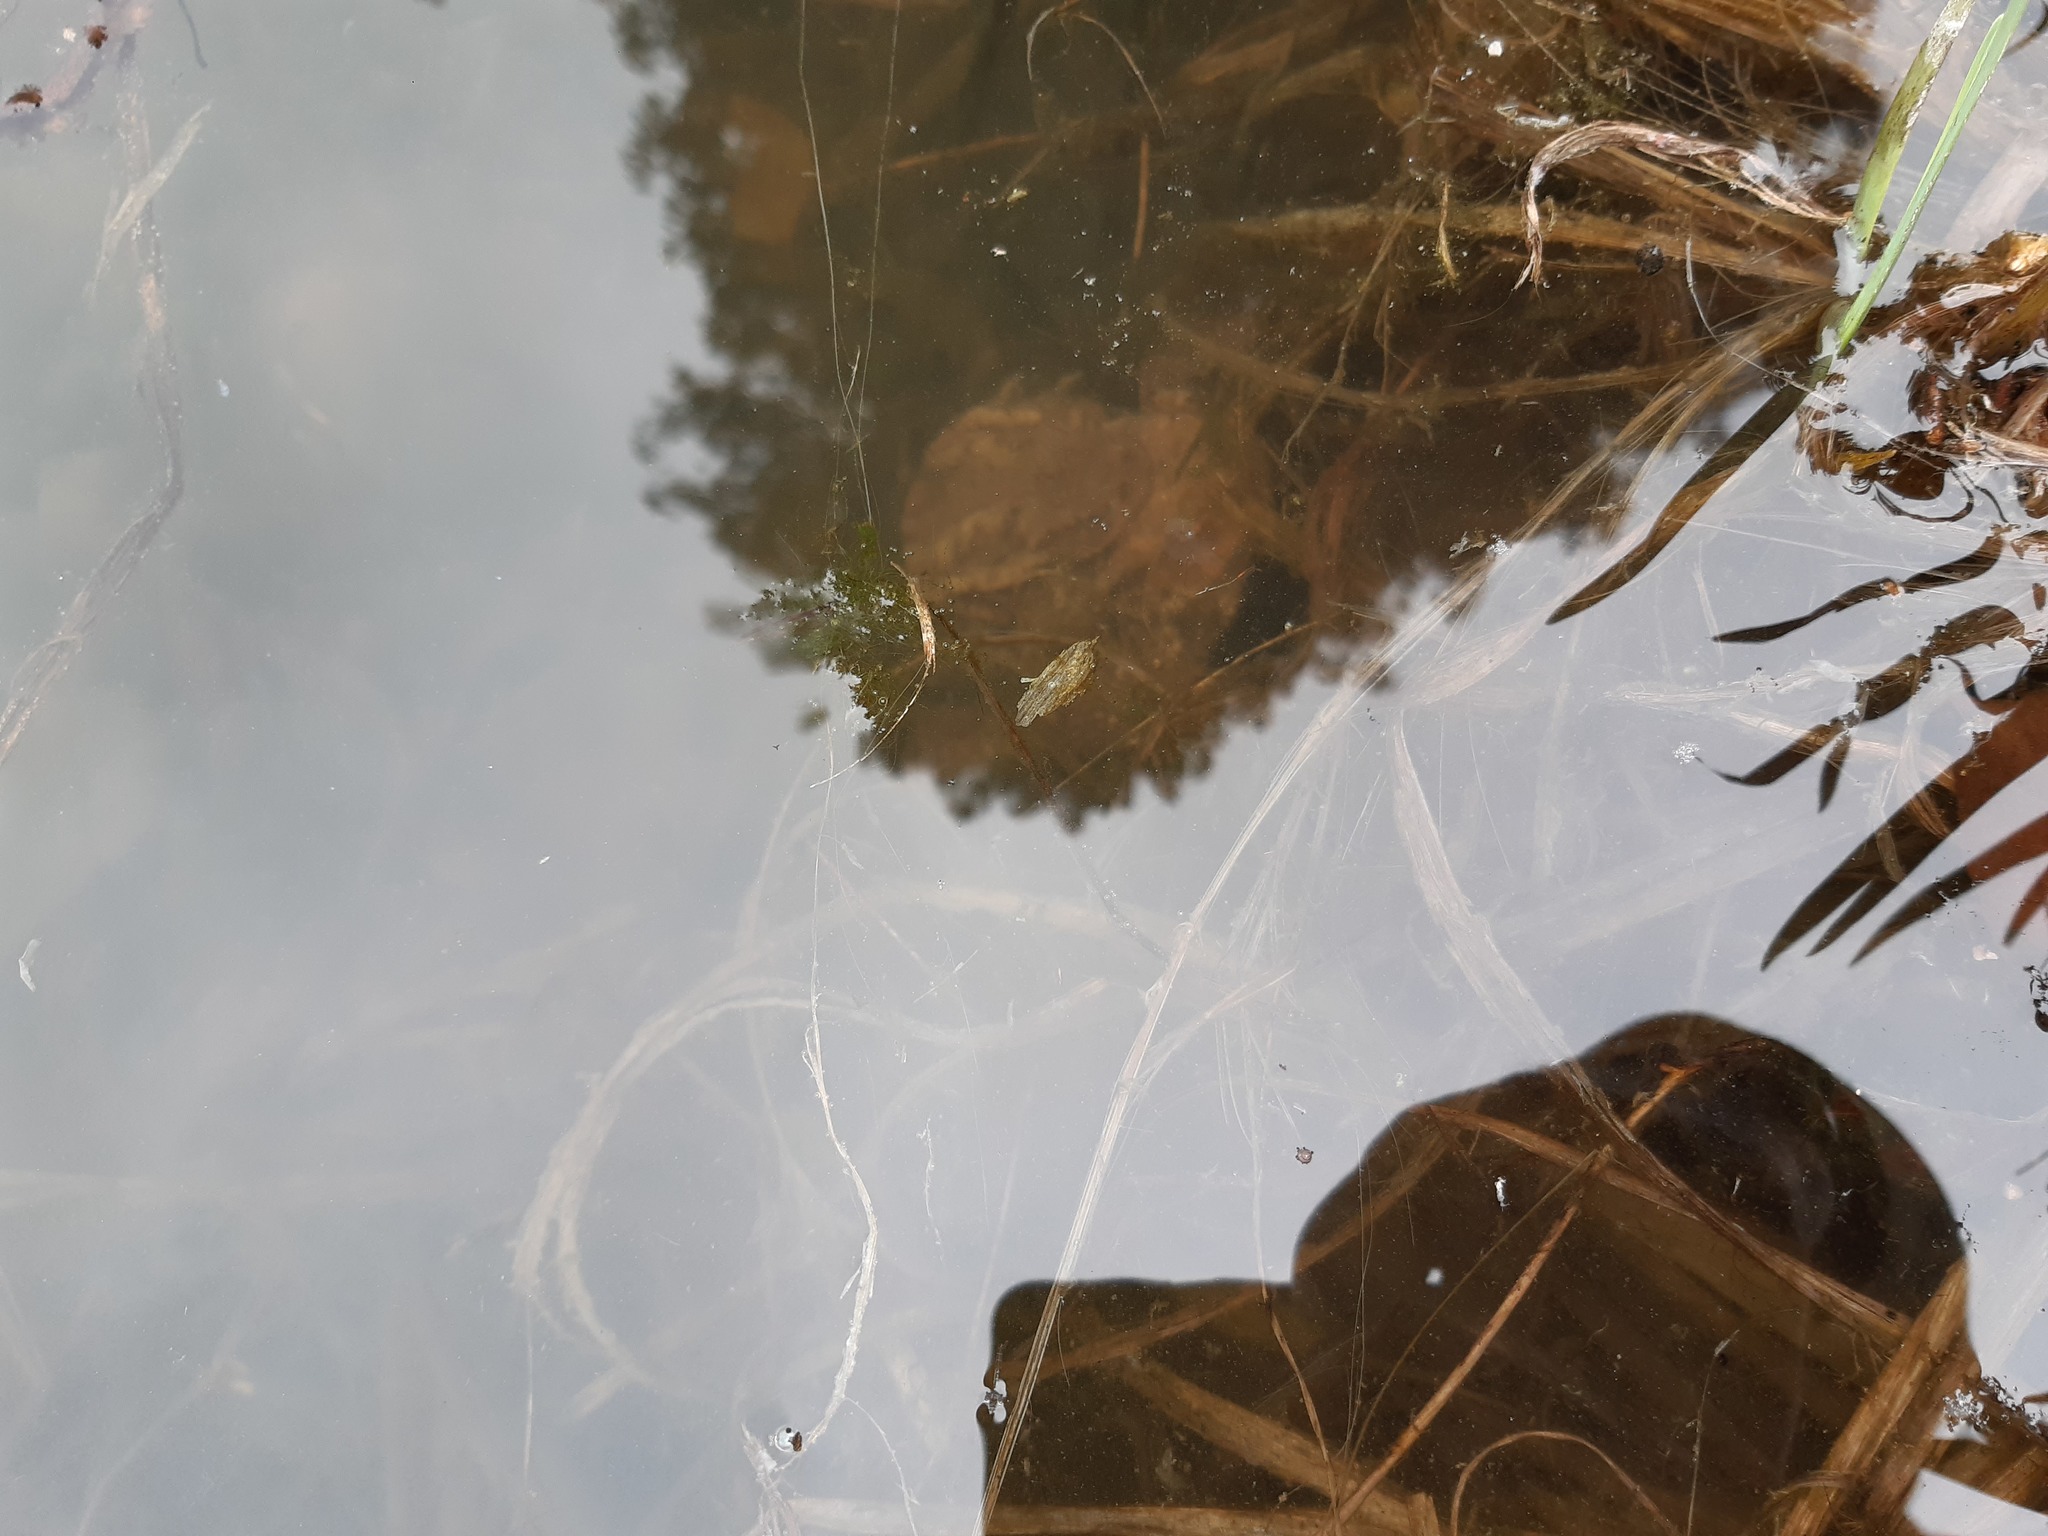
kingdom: Animalia
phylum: Chordata
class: Amphibia
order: Anura
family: Bufonidae
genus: Bufo
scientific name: Bufo bufo
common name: Common toad
